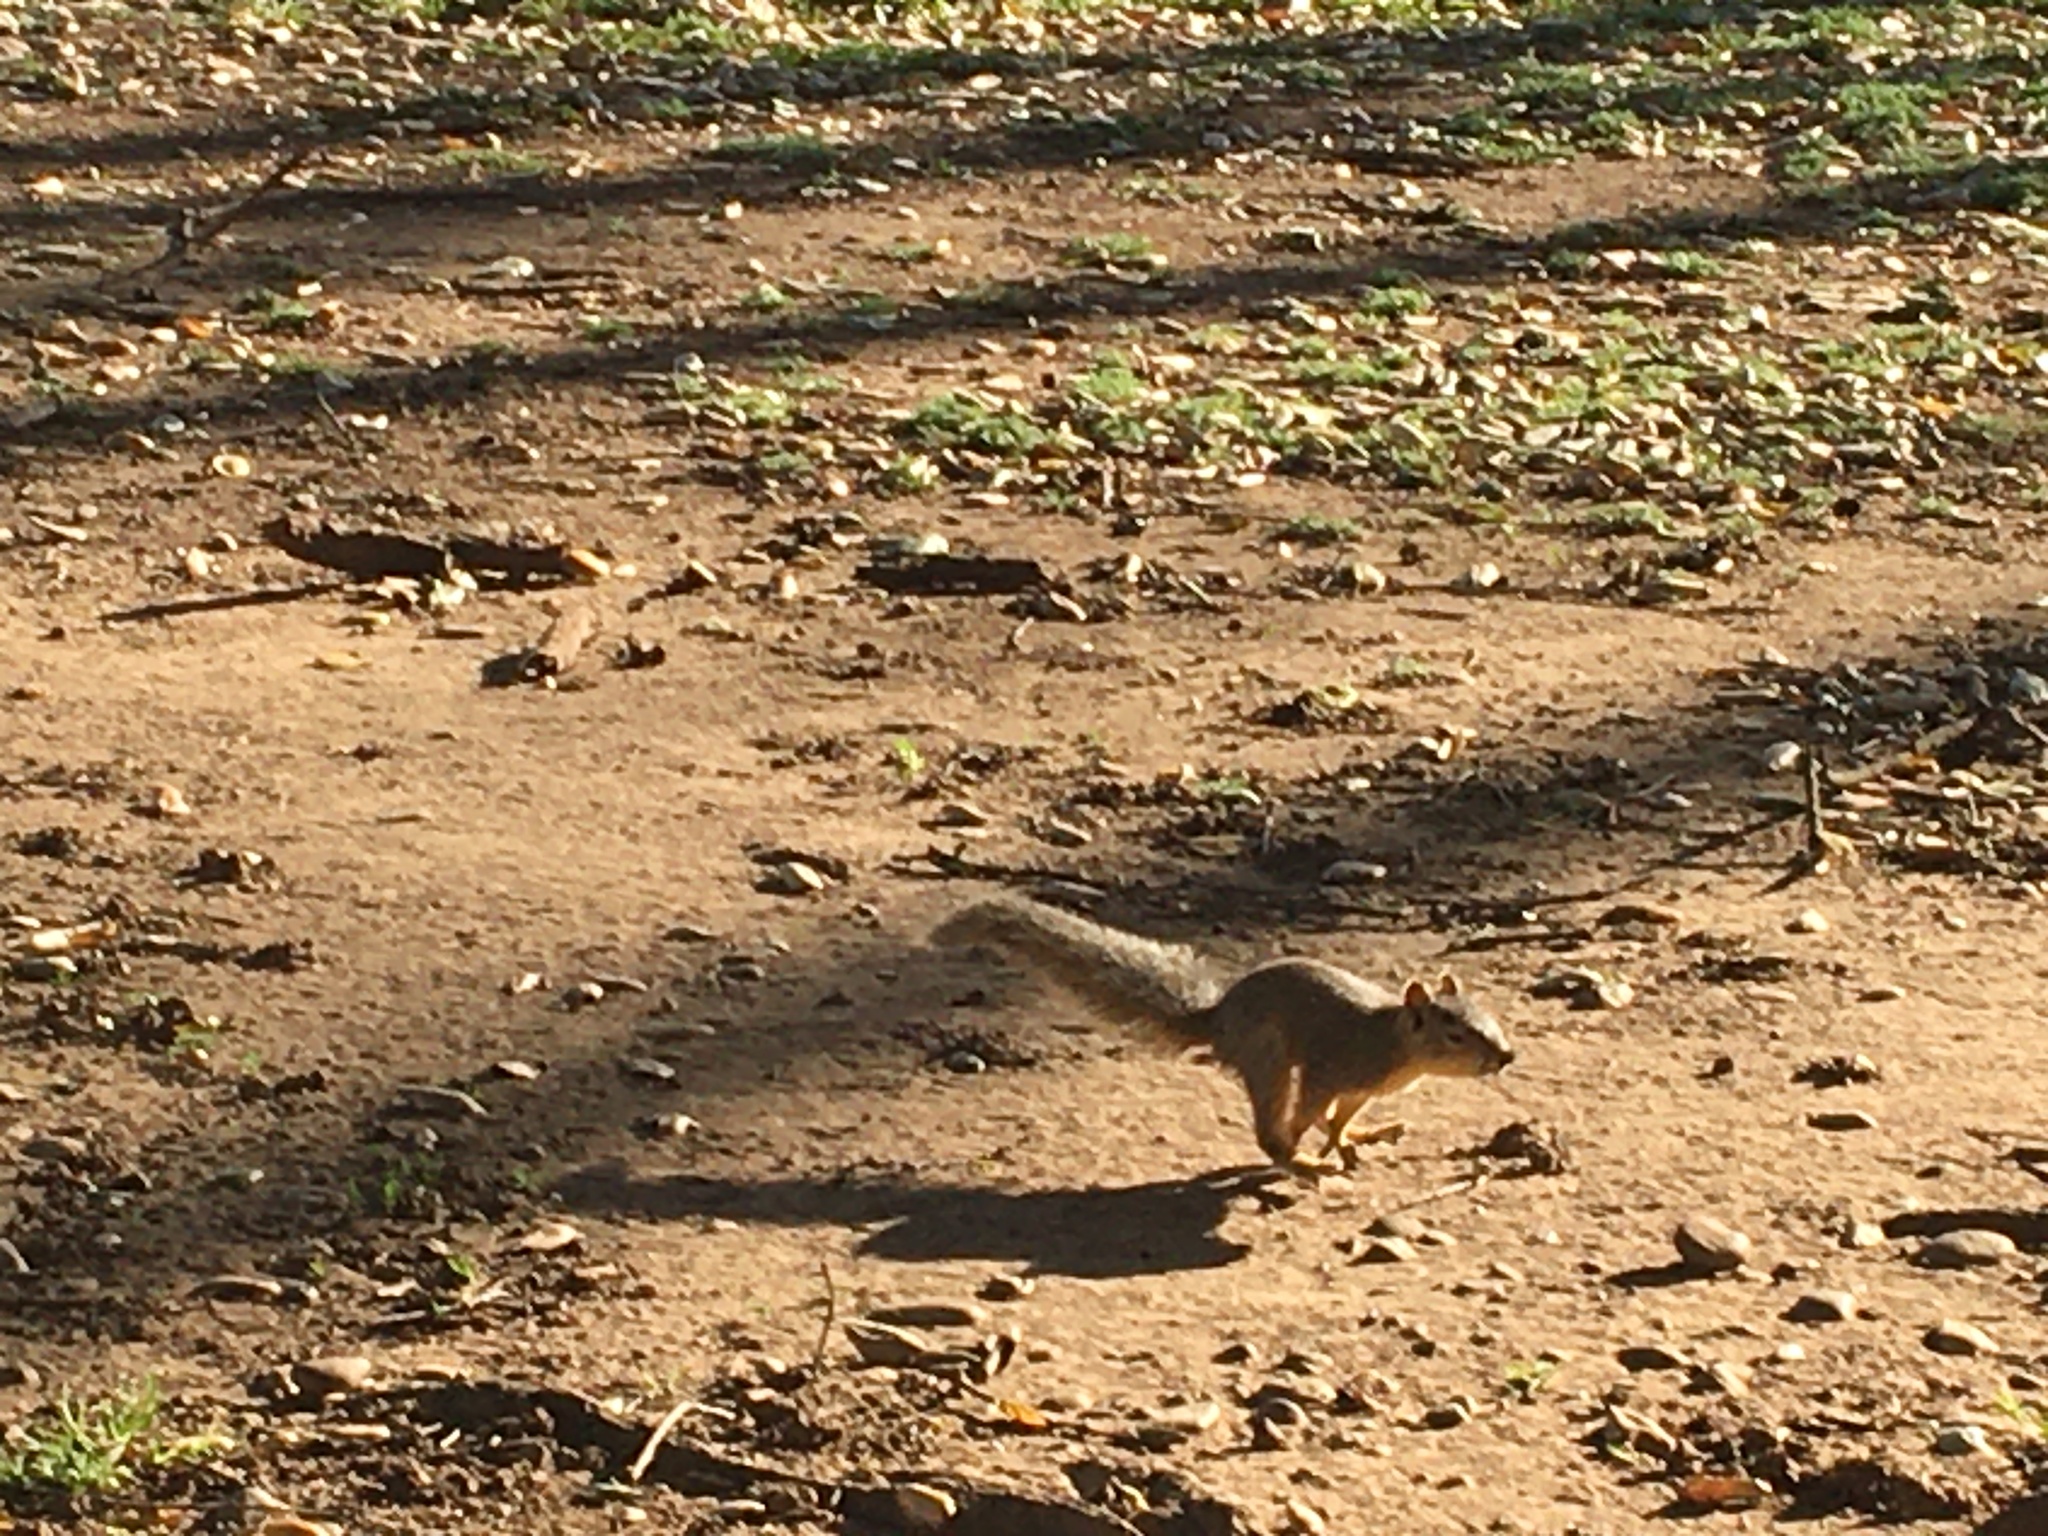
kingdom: Animalia
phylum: Chordata
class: Mammalia
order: Rodentia
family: Sciuridae
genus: Sciurus
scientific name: Sciurus niger
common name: Fox squirrel
